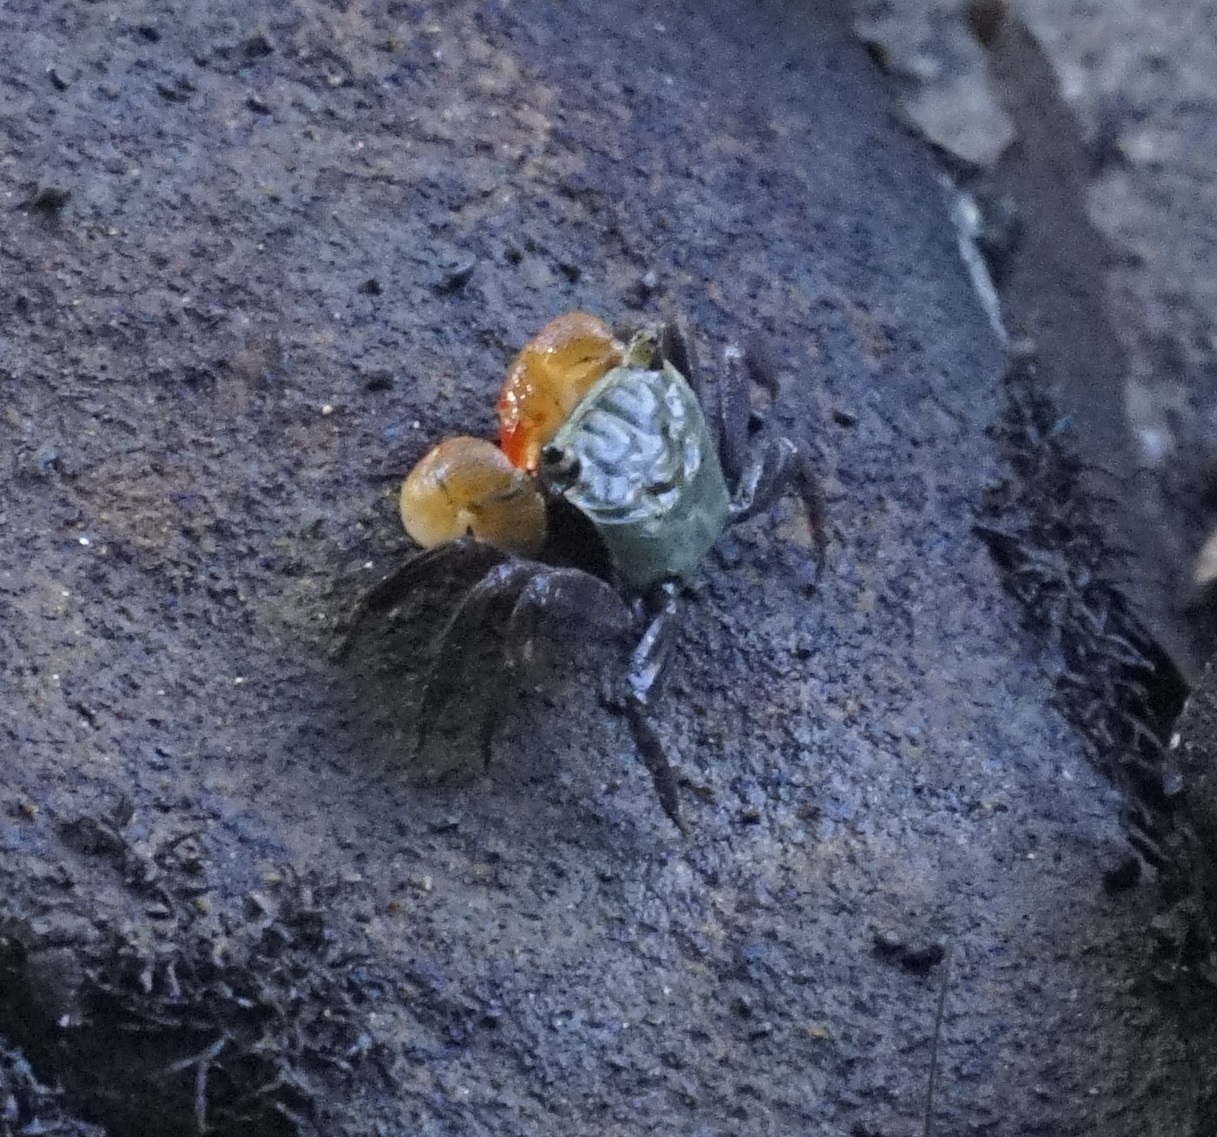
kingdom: Animalia
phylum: Arthropoda
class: Malacostraca
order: Decapoda
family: Sesarmidae
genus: Parasesarma
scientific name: Parasesarma erythodactylum
